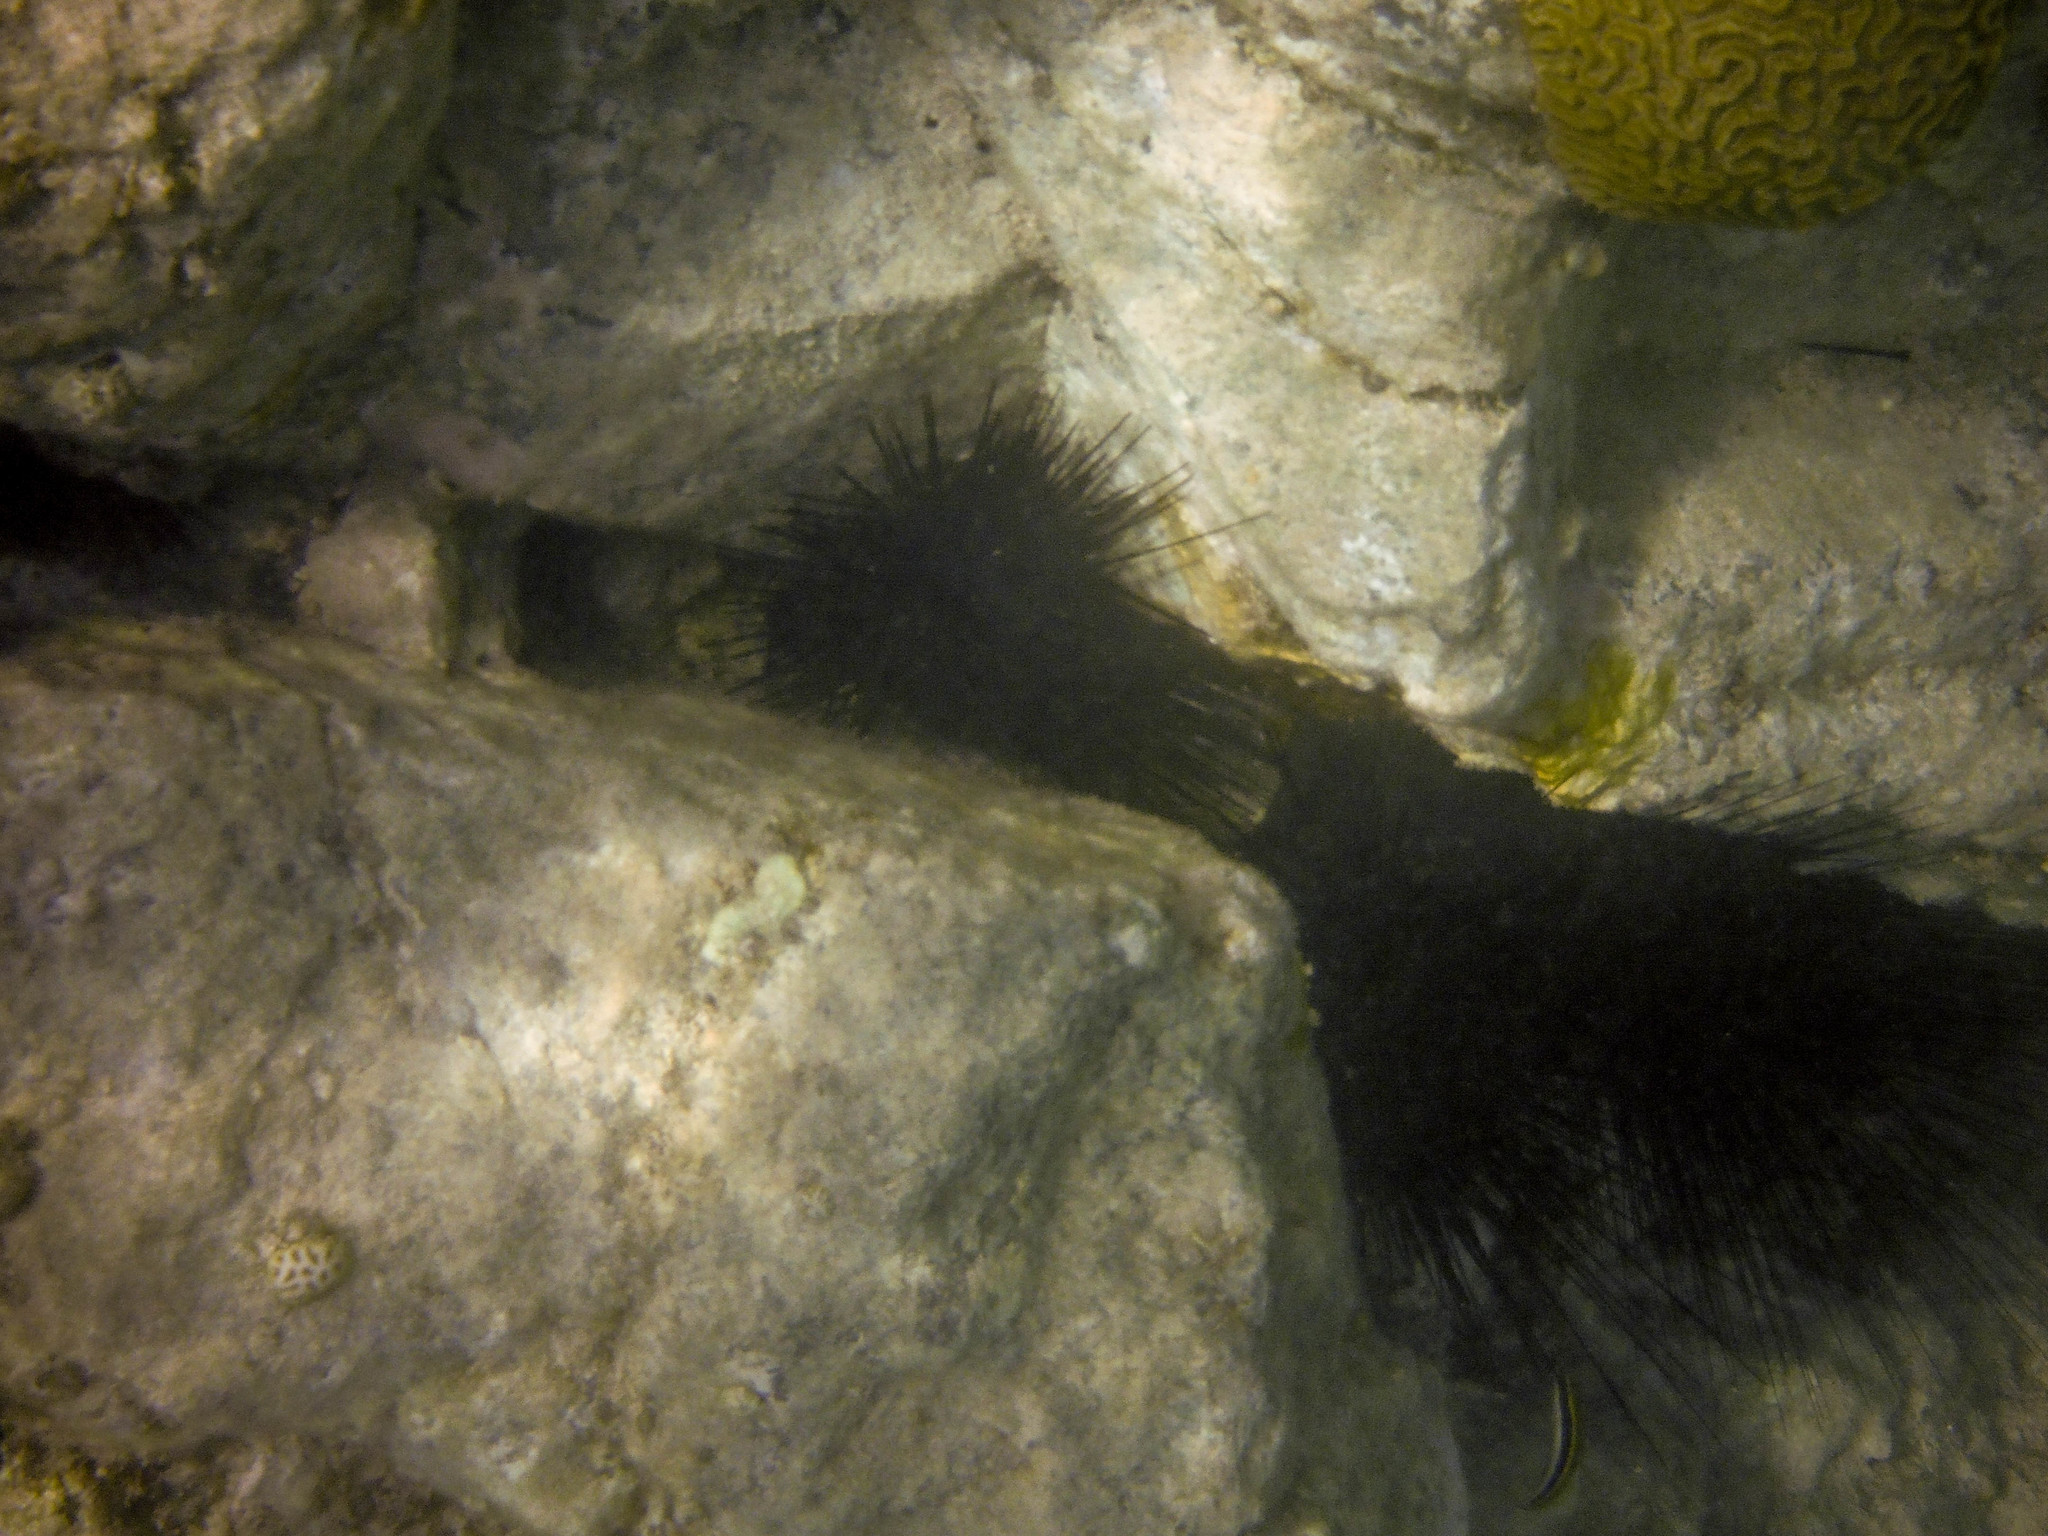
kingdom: Animalia
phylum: Echinodermata
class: Echinoidea
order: Diadematoida
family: Diadematidae
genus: Diadema
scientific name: Diadema antillarum
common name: Spiny urchin
